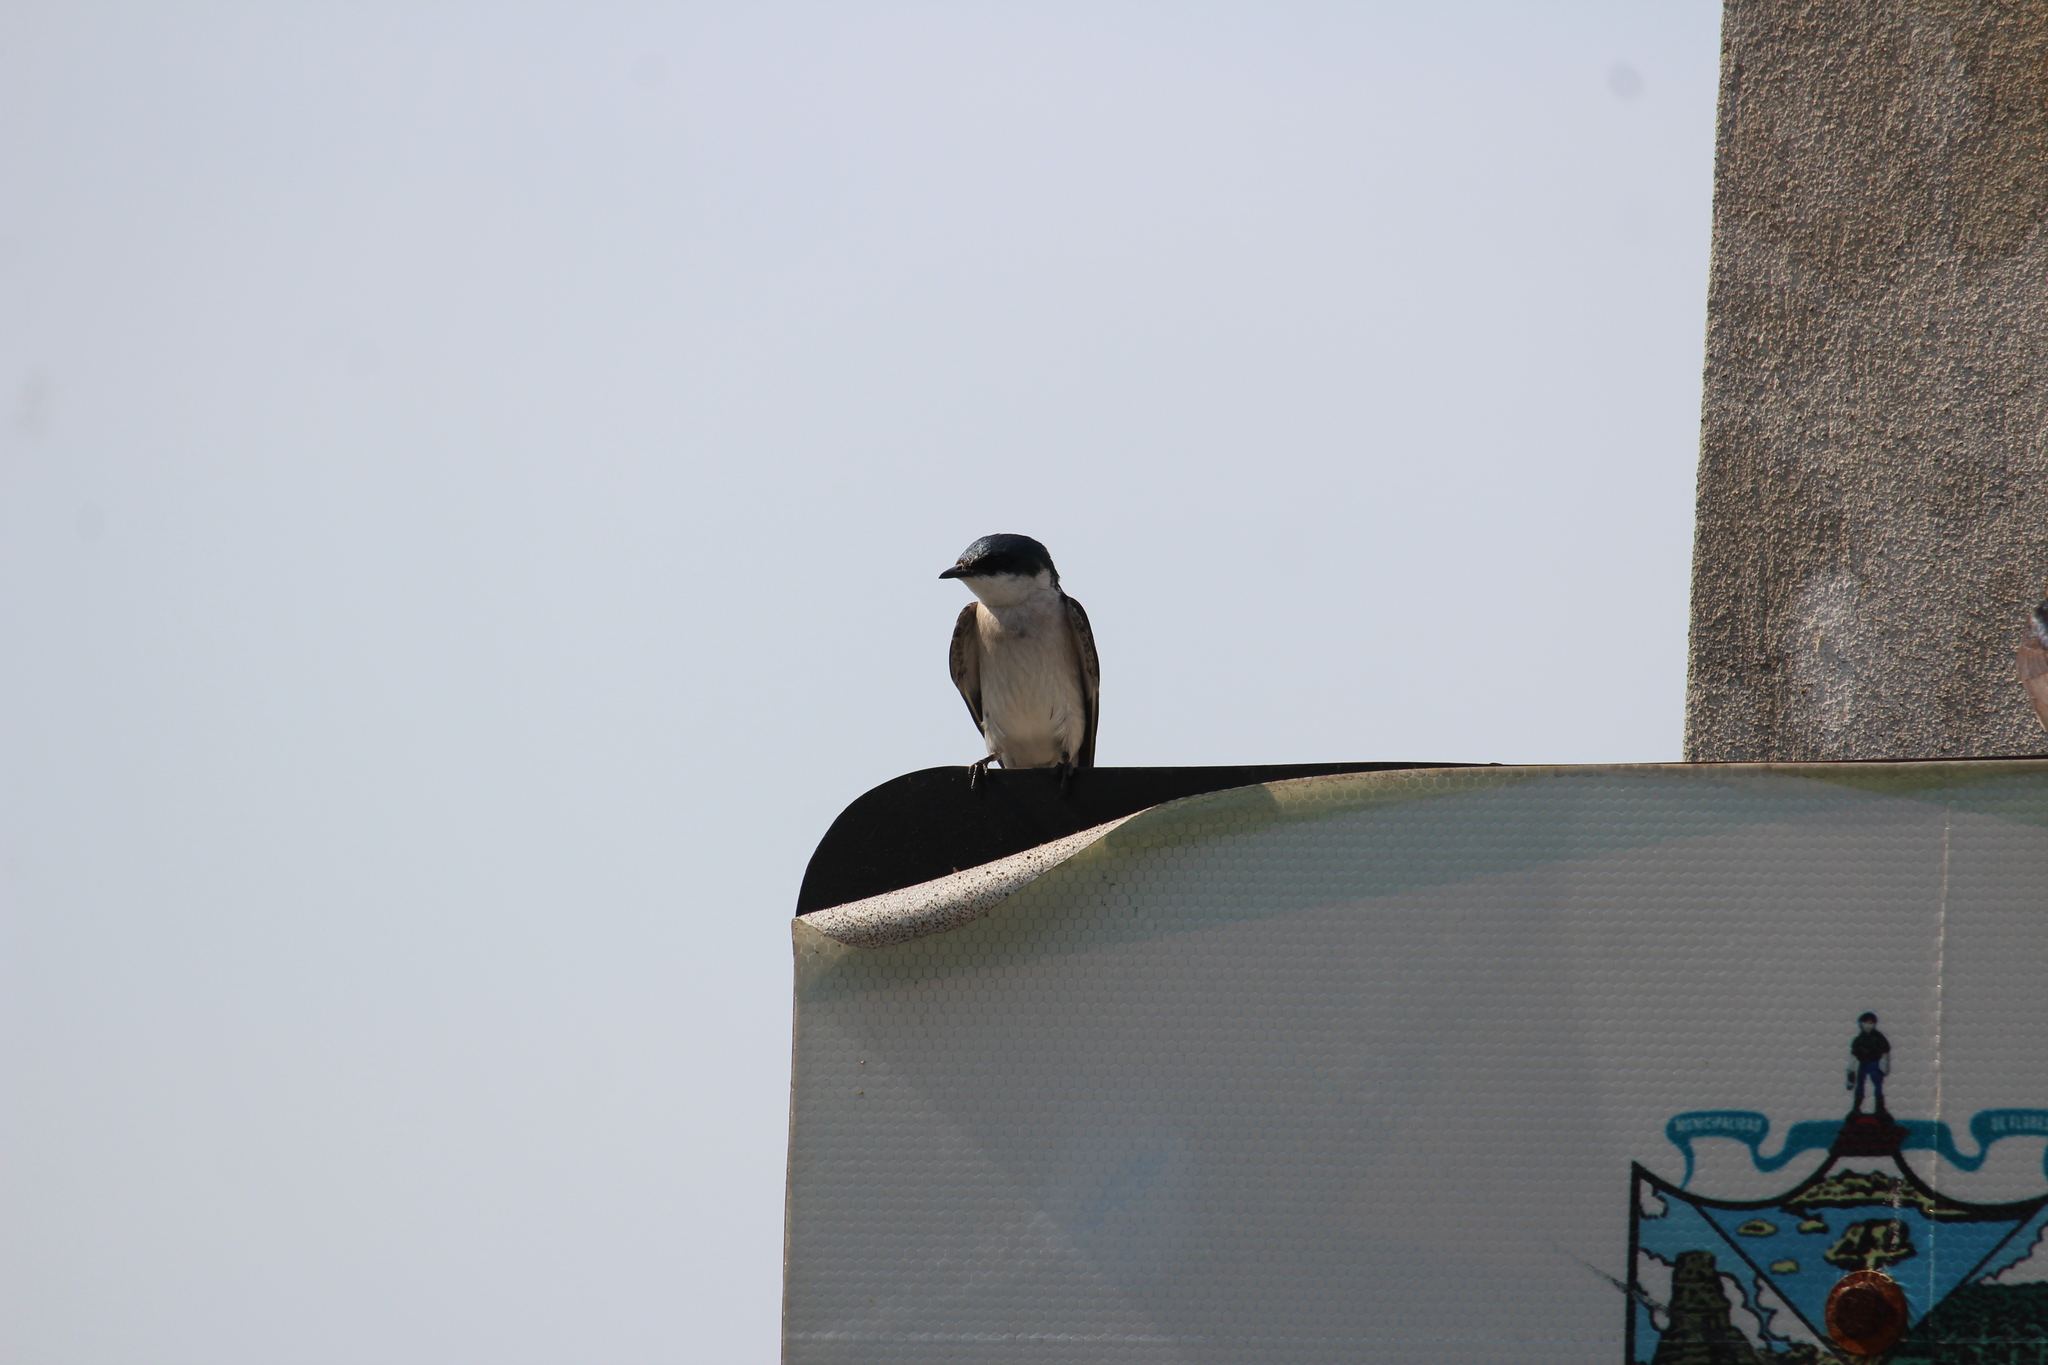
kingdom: Animalia
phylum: Chordata
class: Aves
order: Passeriformes
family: Hirundinidae
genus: Tachycineta
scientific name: Tachycineta albilinea
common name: Mangrove swallow
